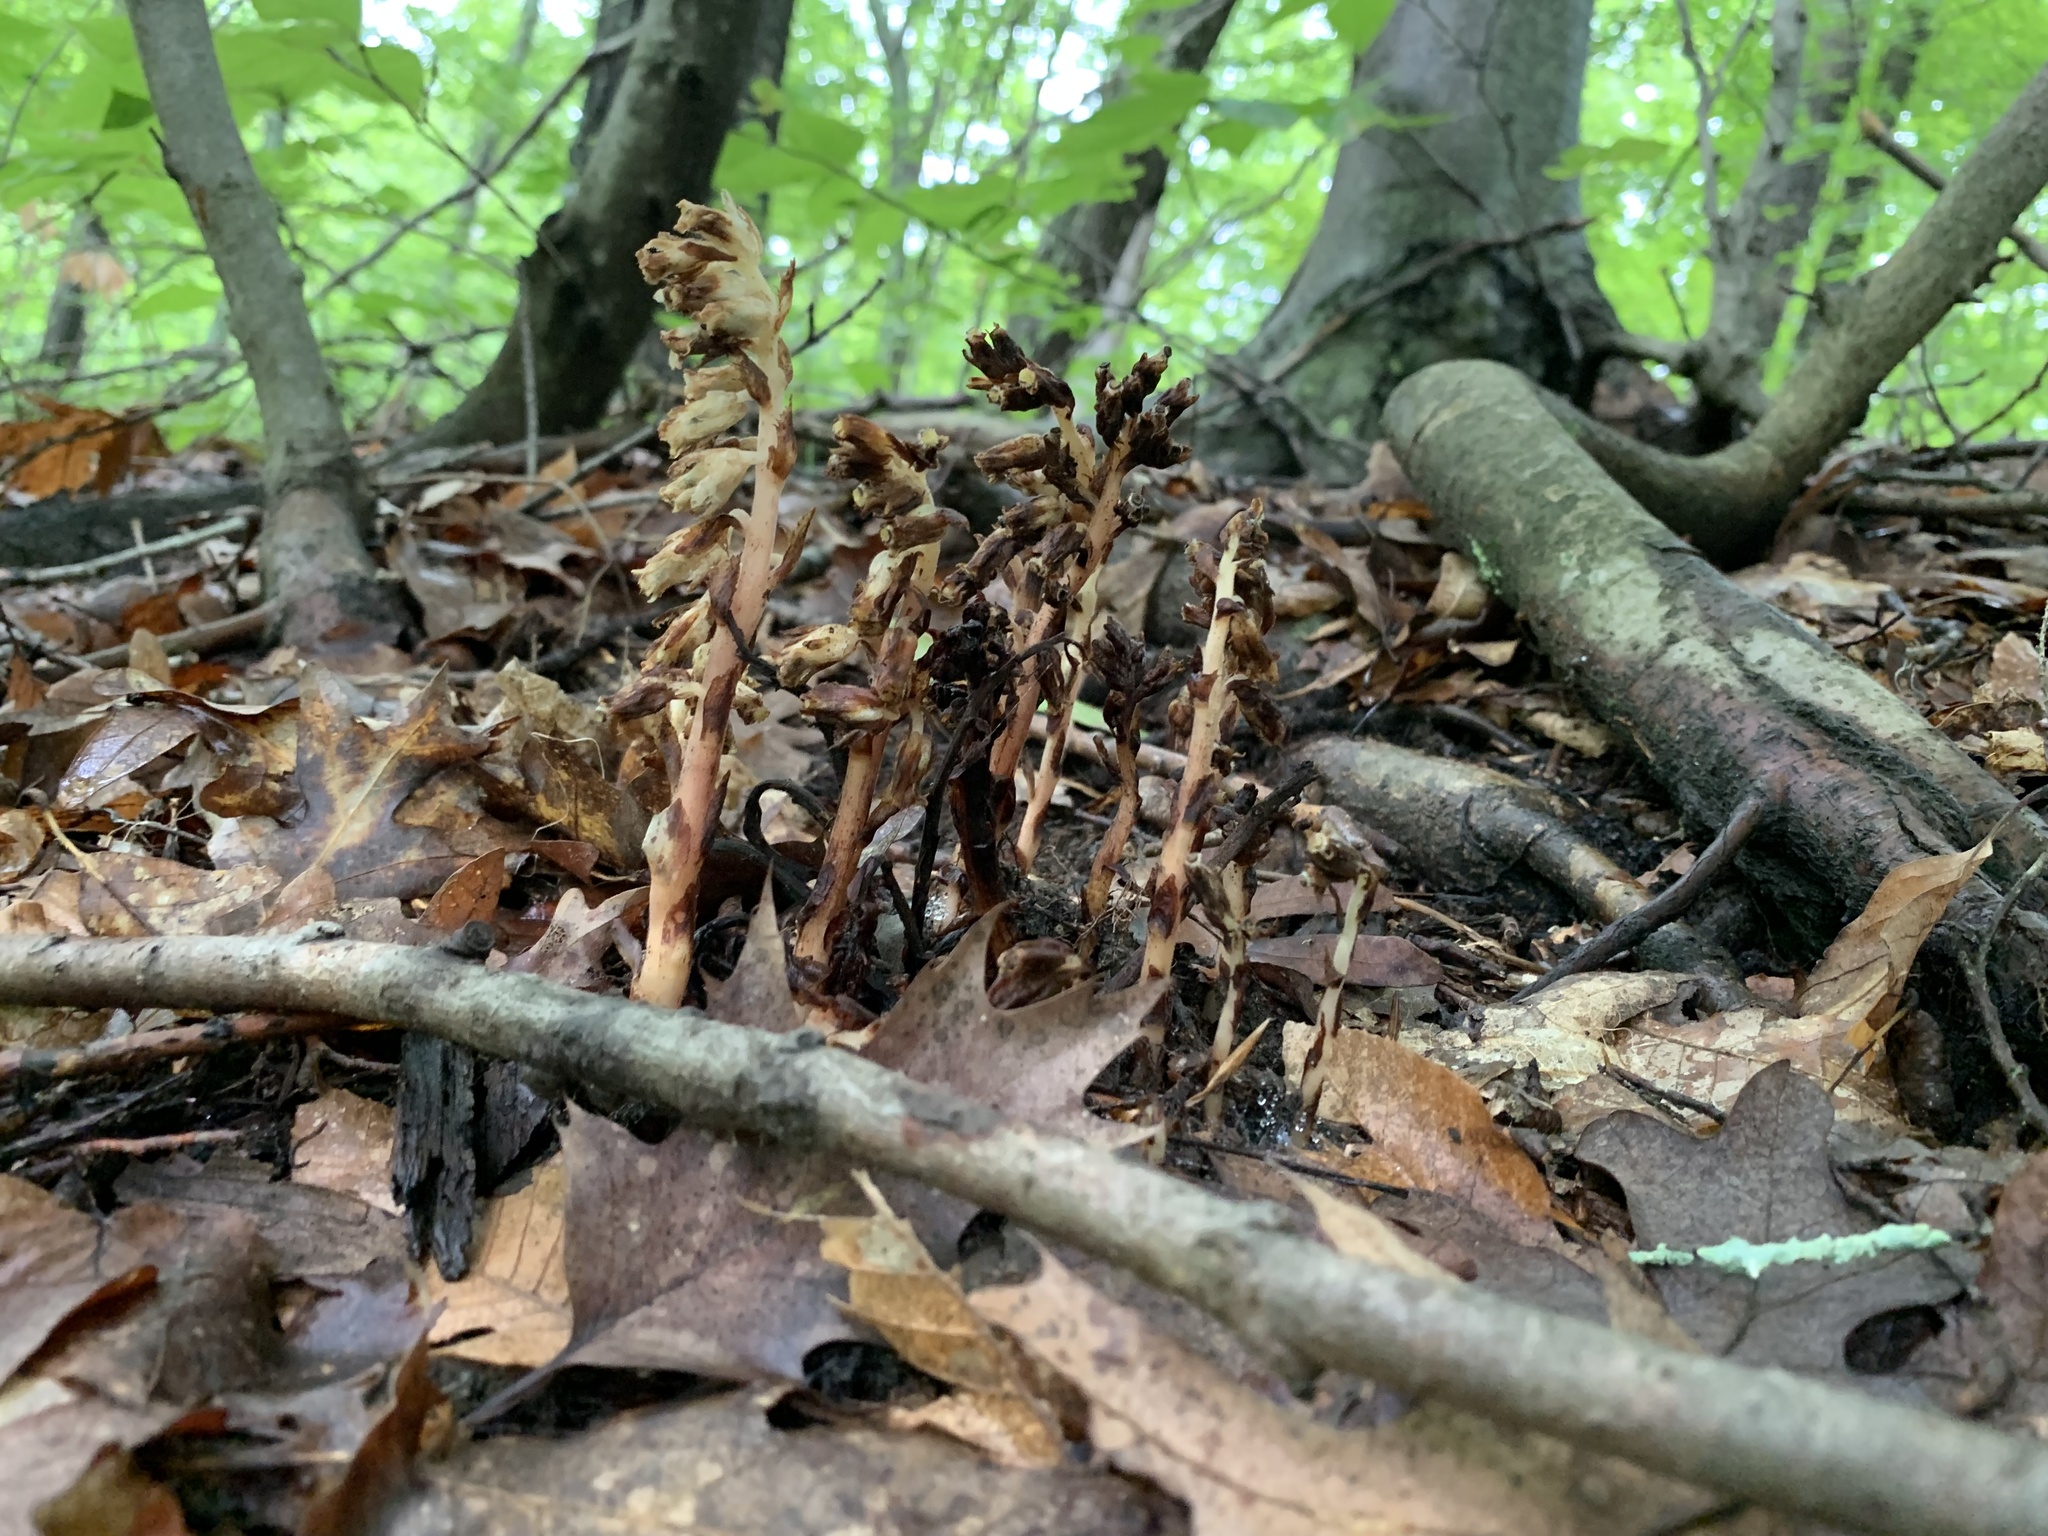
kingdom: Plantae
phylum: Tracheophyta
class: Magnoliopsida
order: Ericales
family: Ericaceae
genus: Hypopitys
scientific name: Hypopitys monotropa
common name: Yellow bird's-nest
